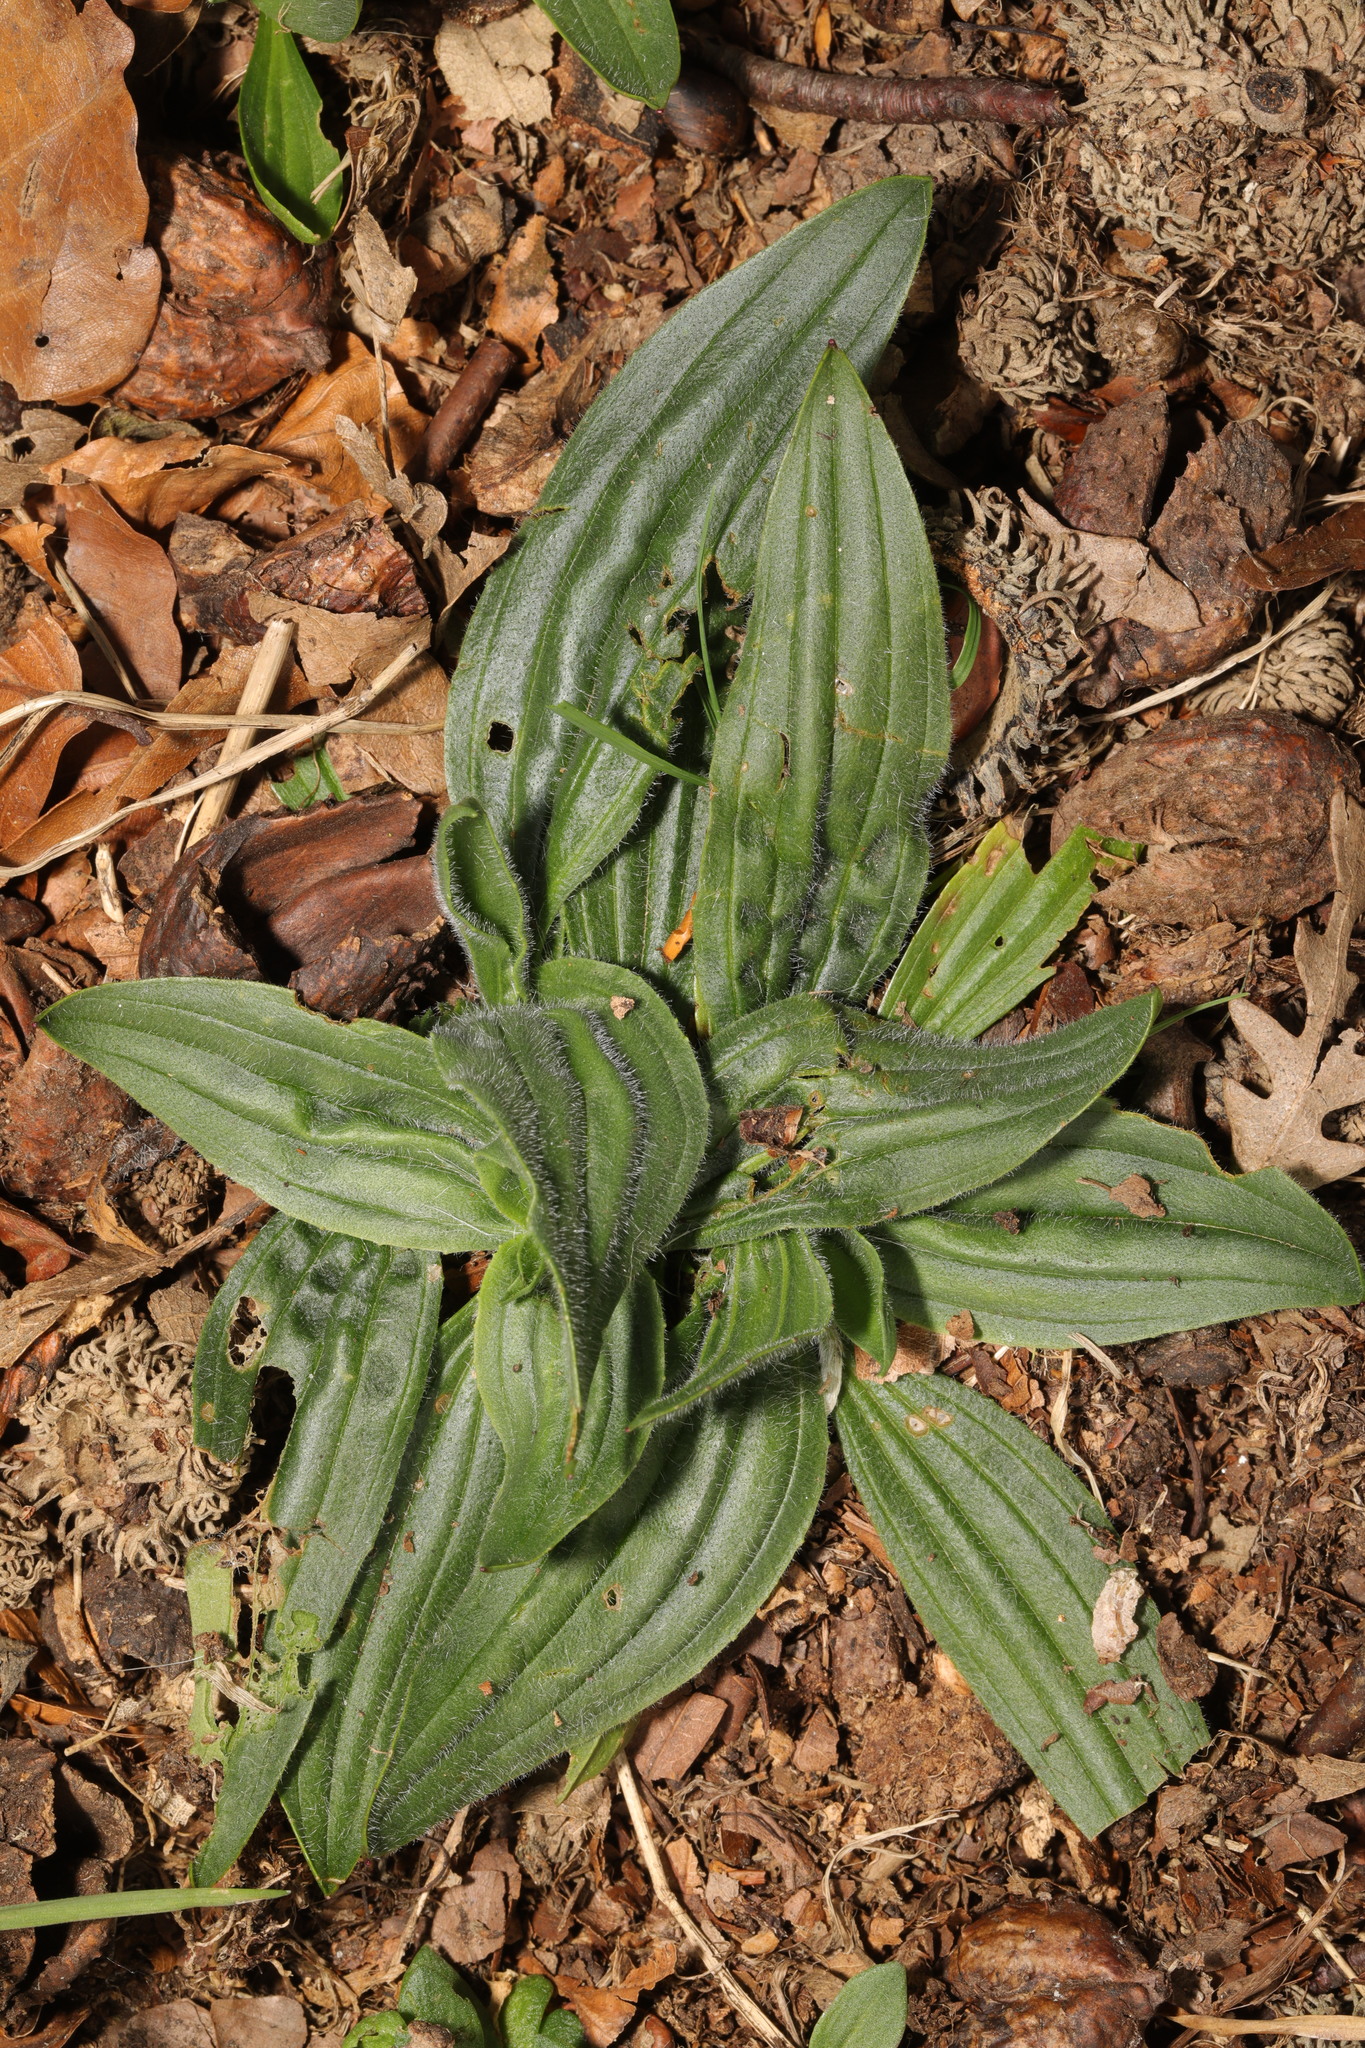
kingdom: Plantae
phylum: Tracheophyta
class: Magnoliopsida
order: Lamiales
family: Plantaginaceae
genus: Plantago
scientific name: Plantago lanceolata
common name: Ribwort plantain
